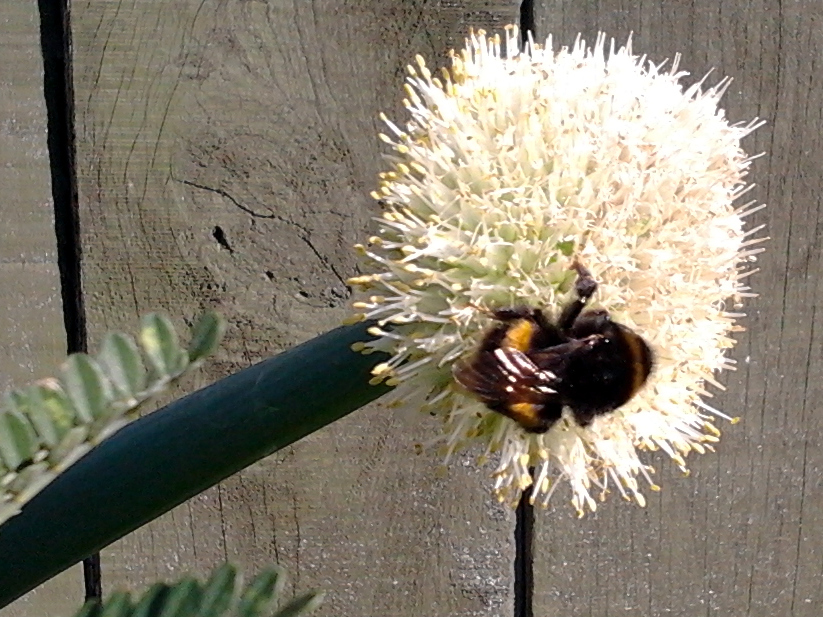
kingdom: Animalia
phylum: Arthropoda
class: Insecta
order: Hymenoptera
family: Apidae
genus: Bombus
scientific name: Bombus terrestris
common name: Buff-tailed bumblebee
